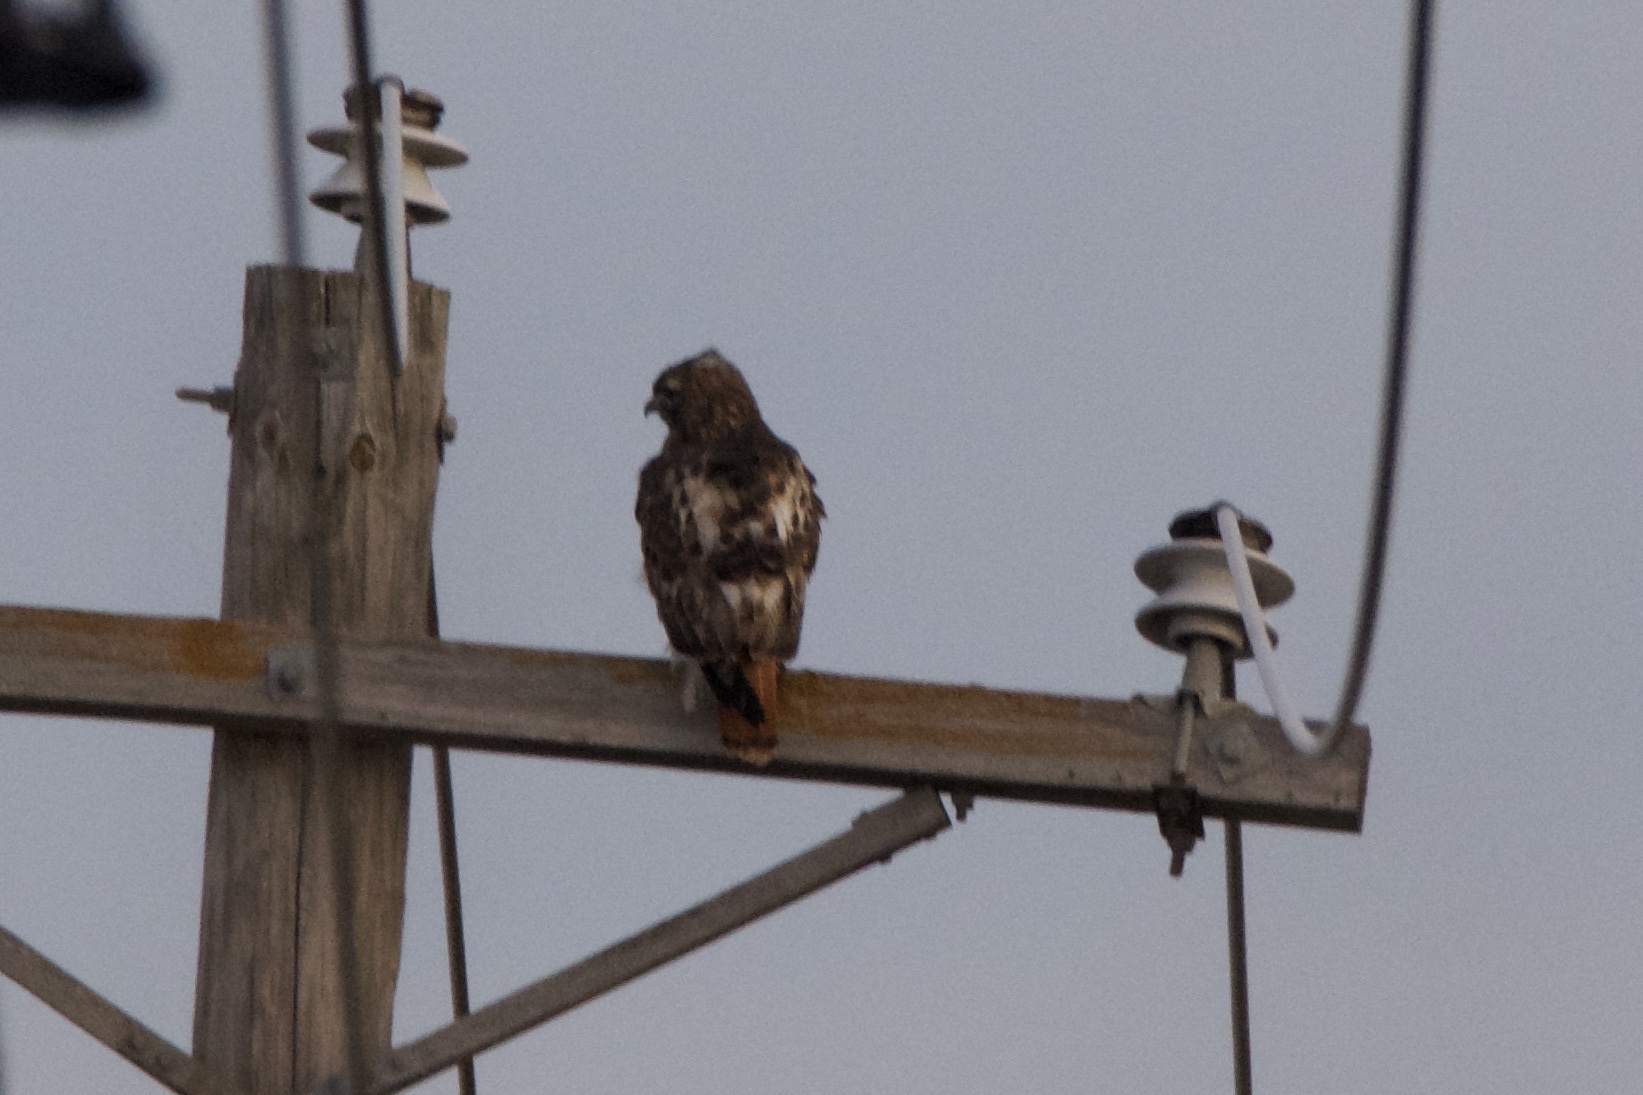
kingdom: Animalia
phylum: Chordata
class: Aves
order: Accipitriformes
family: Accipitridae
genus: Buteo
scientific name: Buteo jamaicensis
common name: Red-tailed hawk
